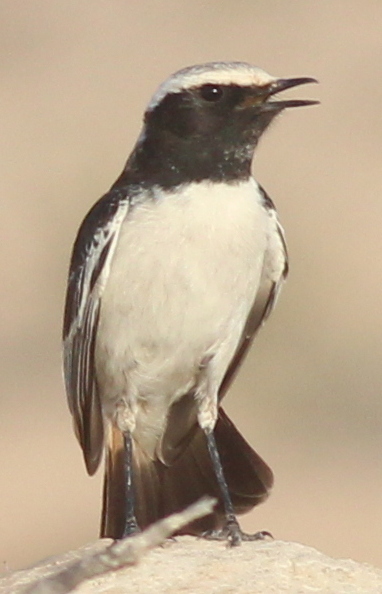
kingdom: Animalia
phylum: Chordata
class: Aves
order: Passeriformes
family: Muscicapidae
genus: Oenanthe
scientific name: Oenanthe moesta
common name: Red-rumped wheatear
